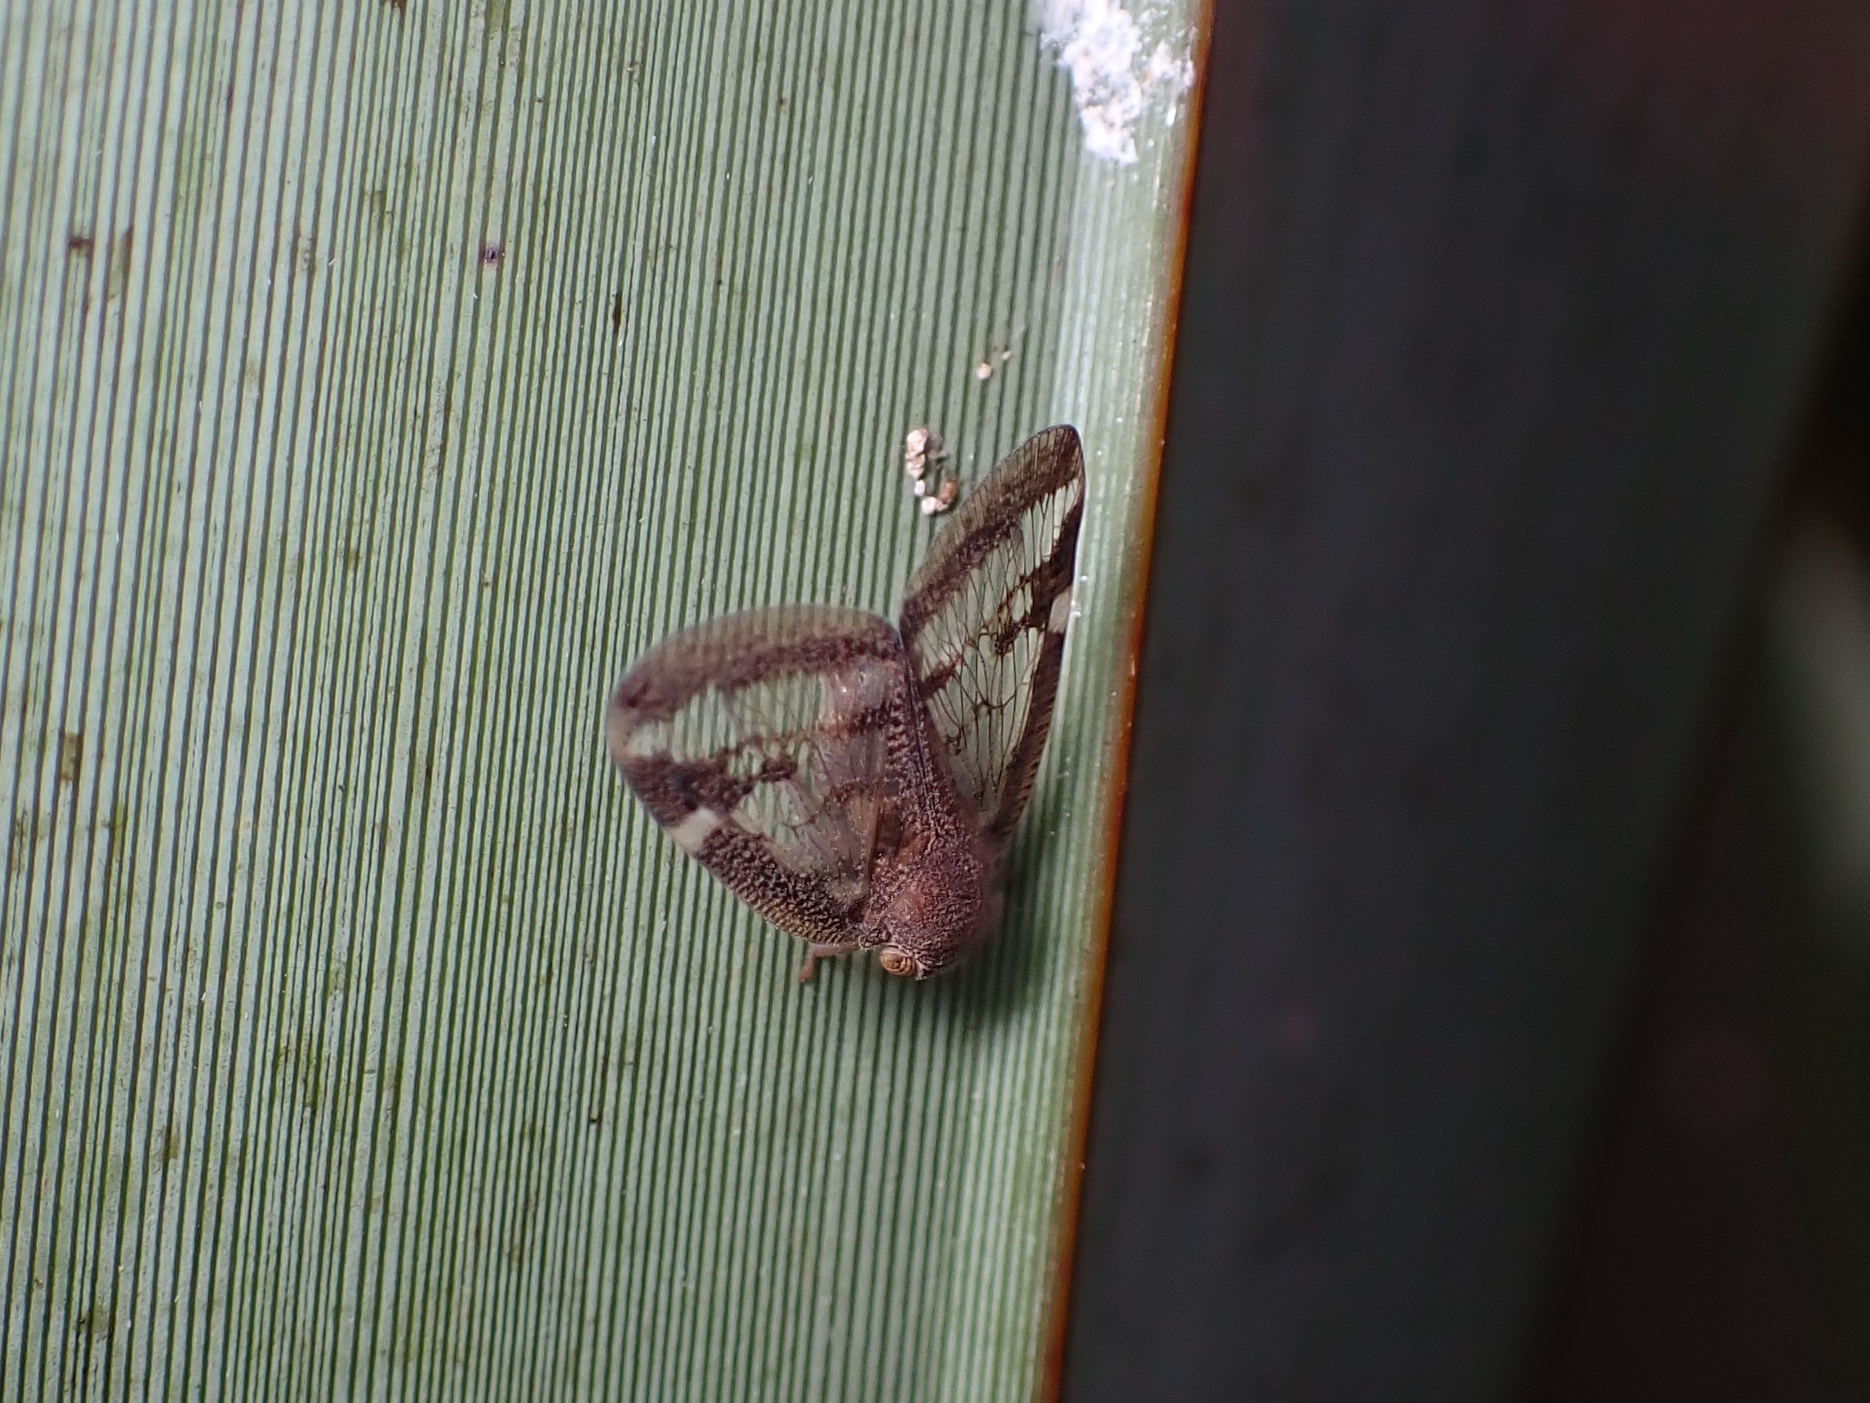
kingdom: Animalia
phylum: Arthropoda
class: Insecta
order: Hemiptera
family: Ricaniidae
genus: Scolypopa
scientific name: Scolypopa australis
